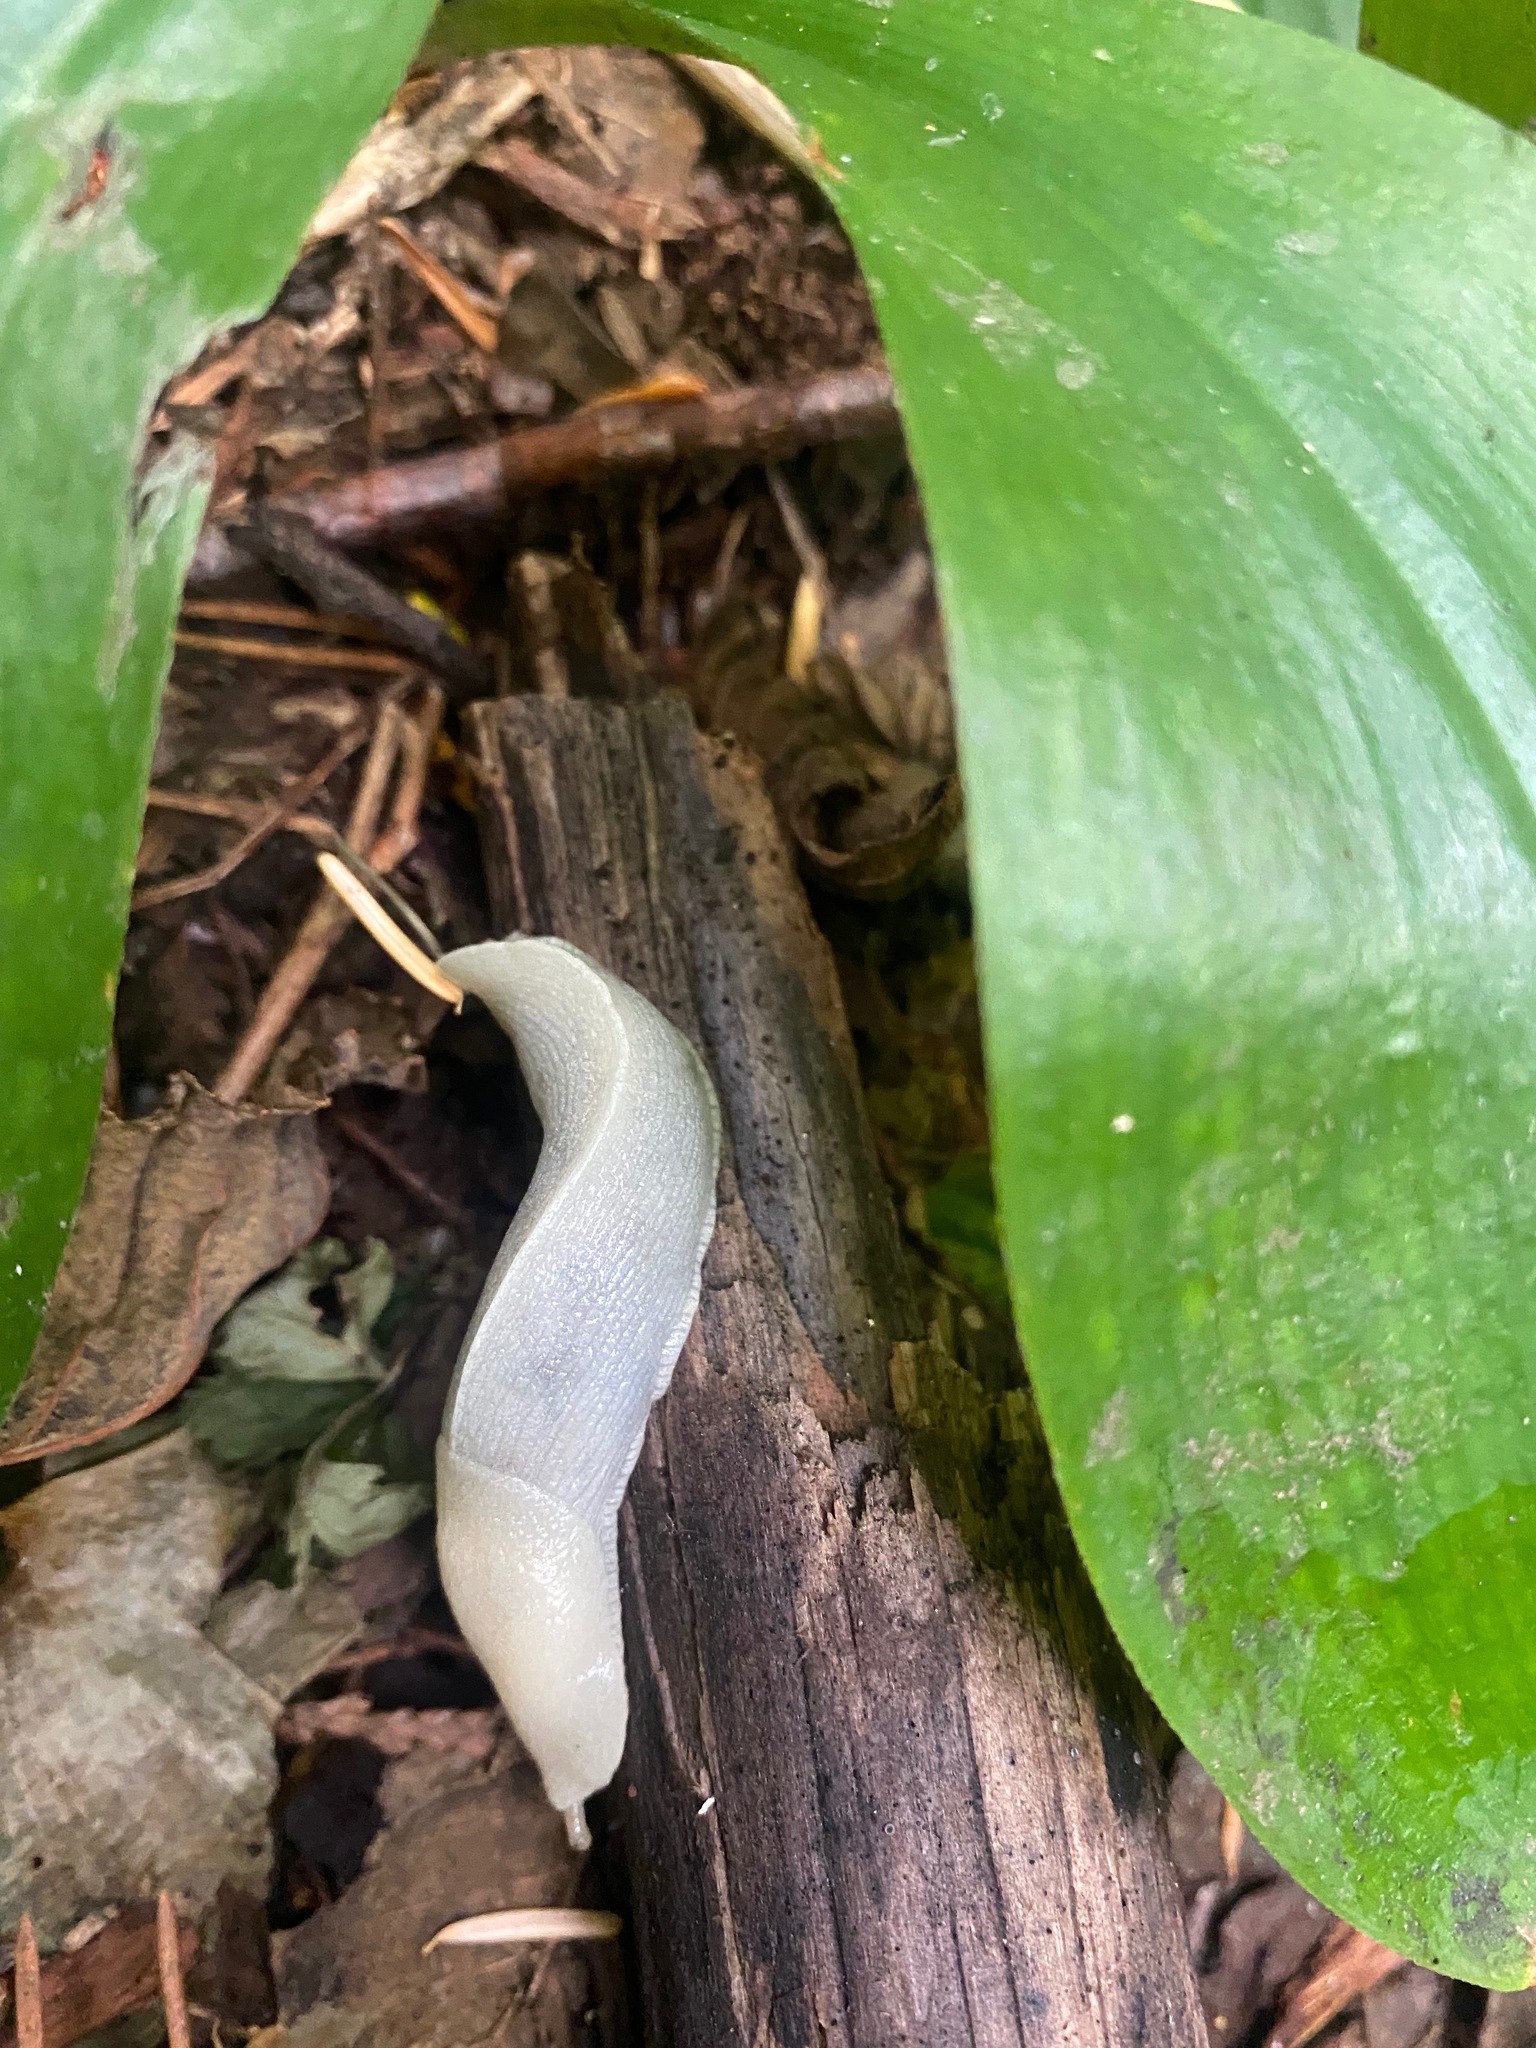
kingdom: Animalia
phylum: Mollusca
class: Gastropoda
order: Stylommatophora
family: Ariolimacidae
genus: Ariolimax
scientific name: Ariolimax columbianus
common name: Pacific banana slug
